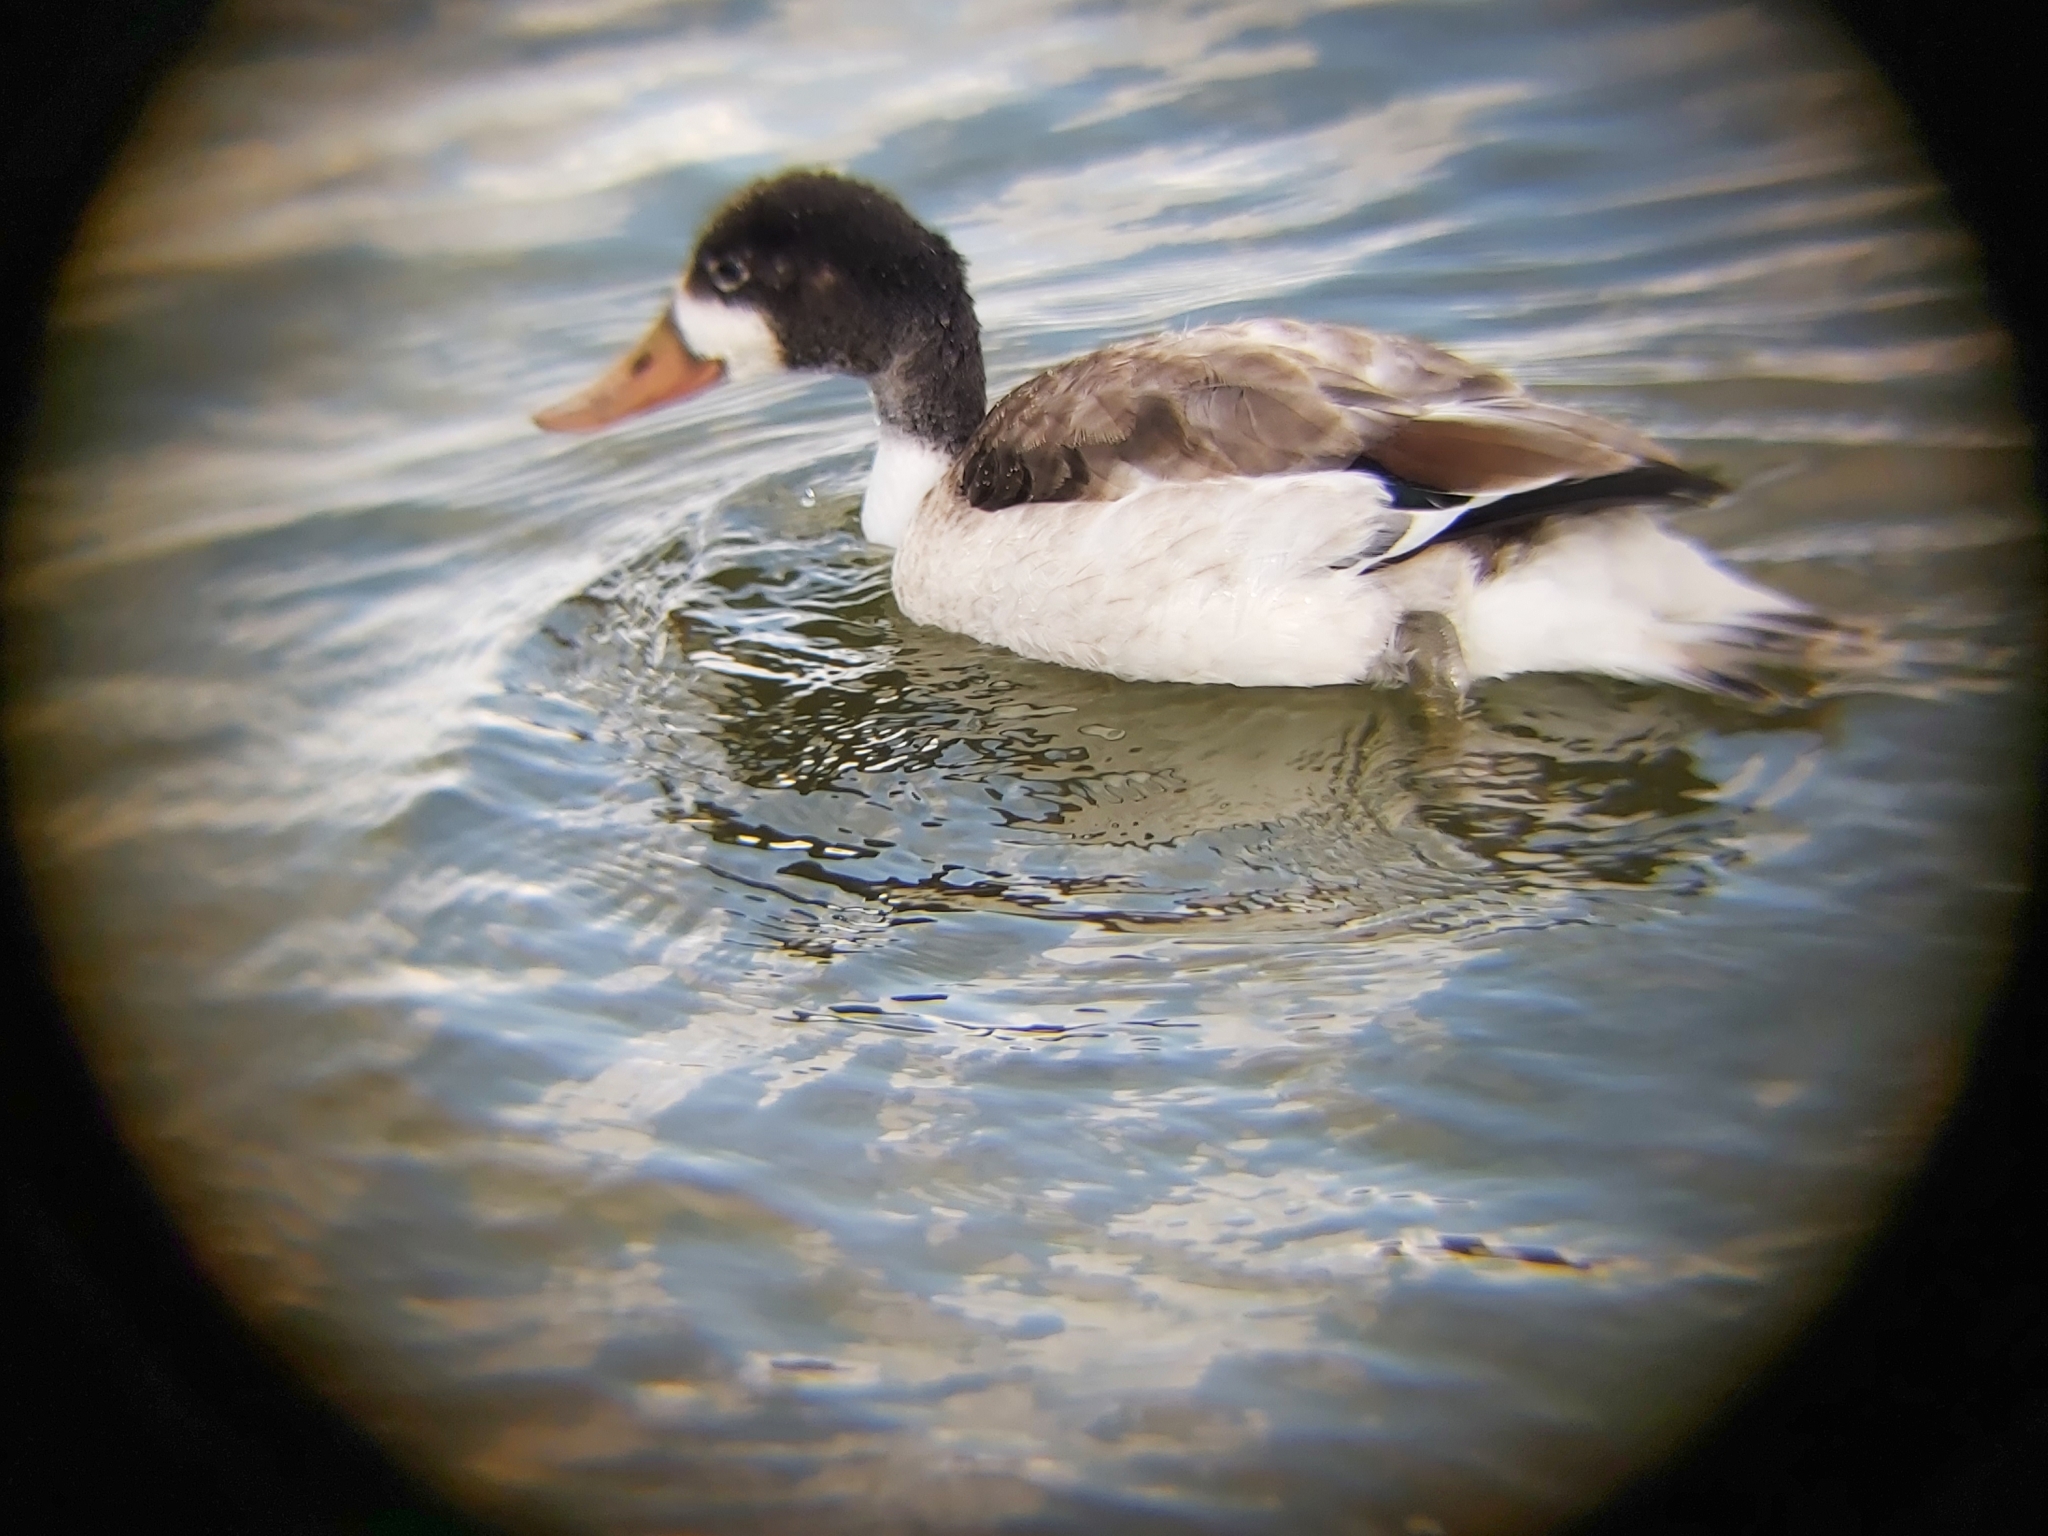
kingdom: Animalia
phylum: Chordata
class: Aves
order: Anseriformes
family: Anatidae
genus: Tadorna
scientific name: Tadorna tadorna
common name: Common shelduck
